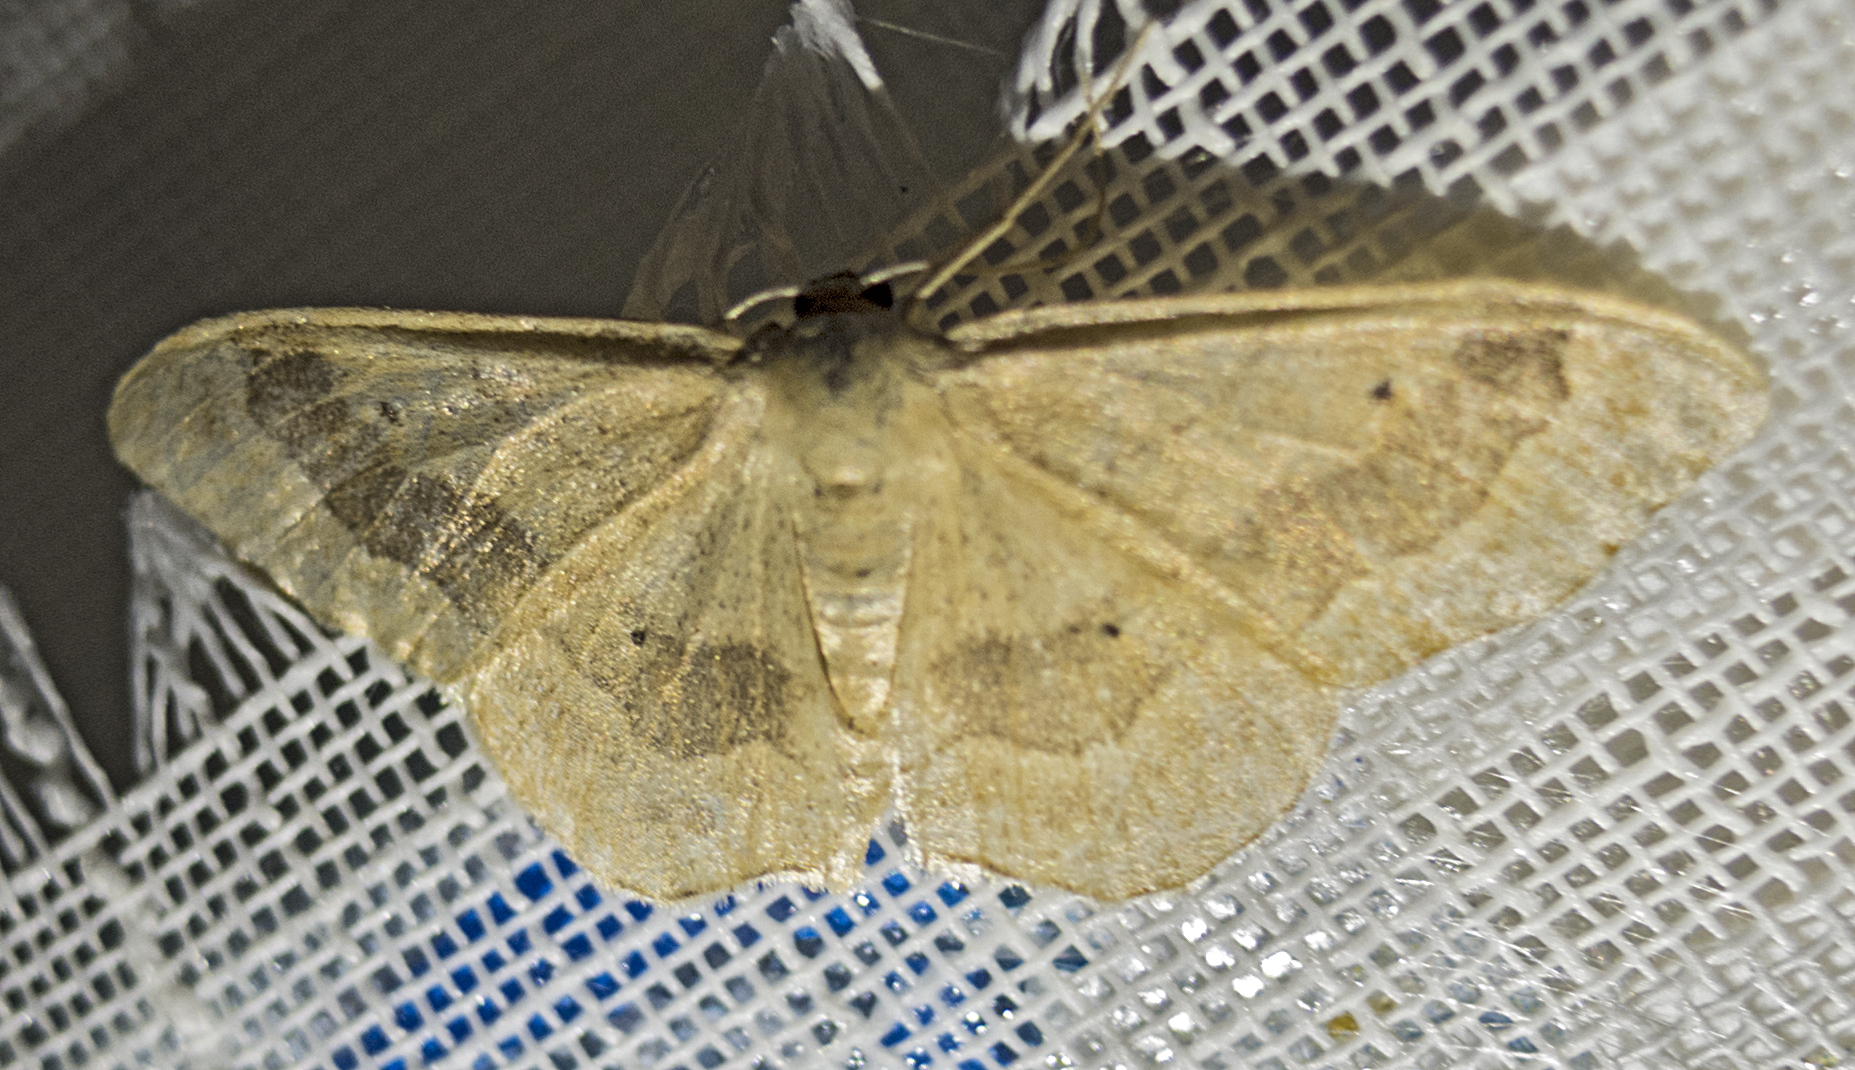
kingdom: Animalia
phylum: Arthropoda
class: Insecta
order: Lepidoptera
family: Geometridae
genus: Idaea
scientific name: Idaea aversata
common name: Riband wave
